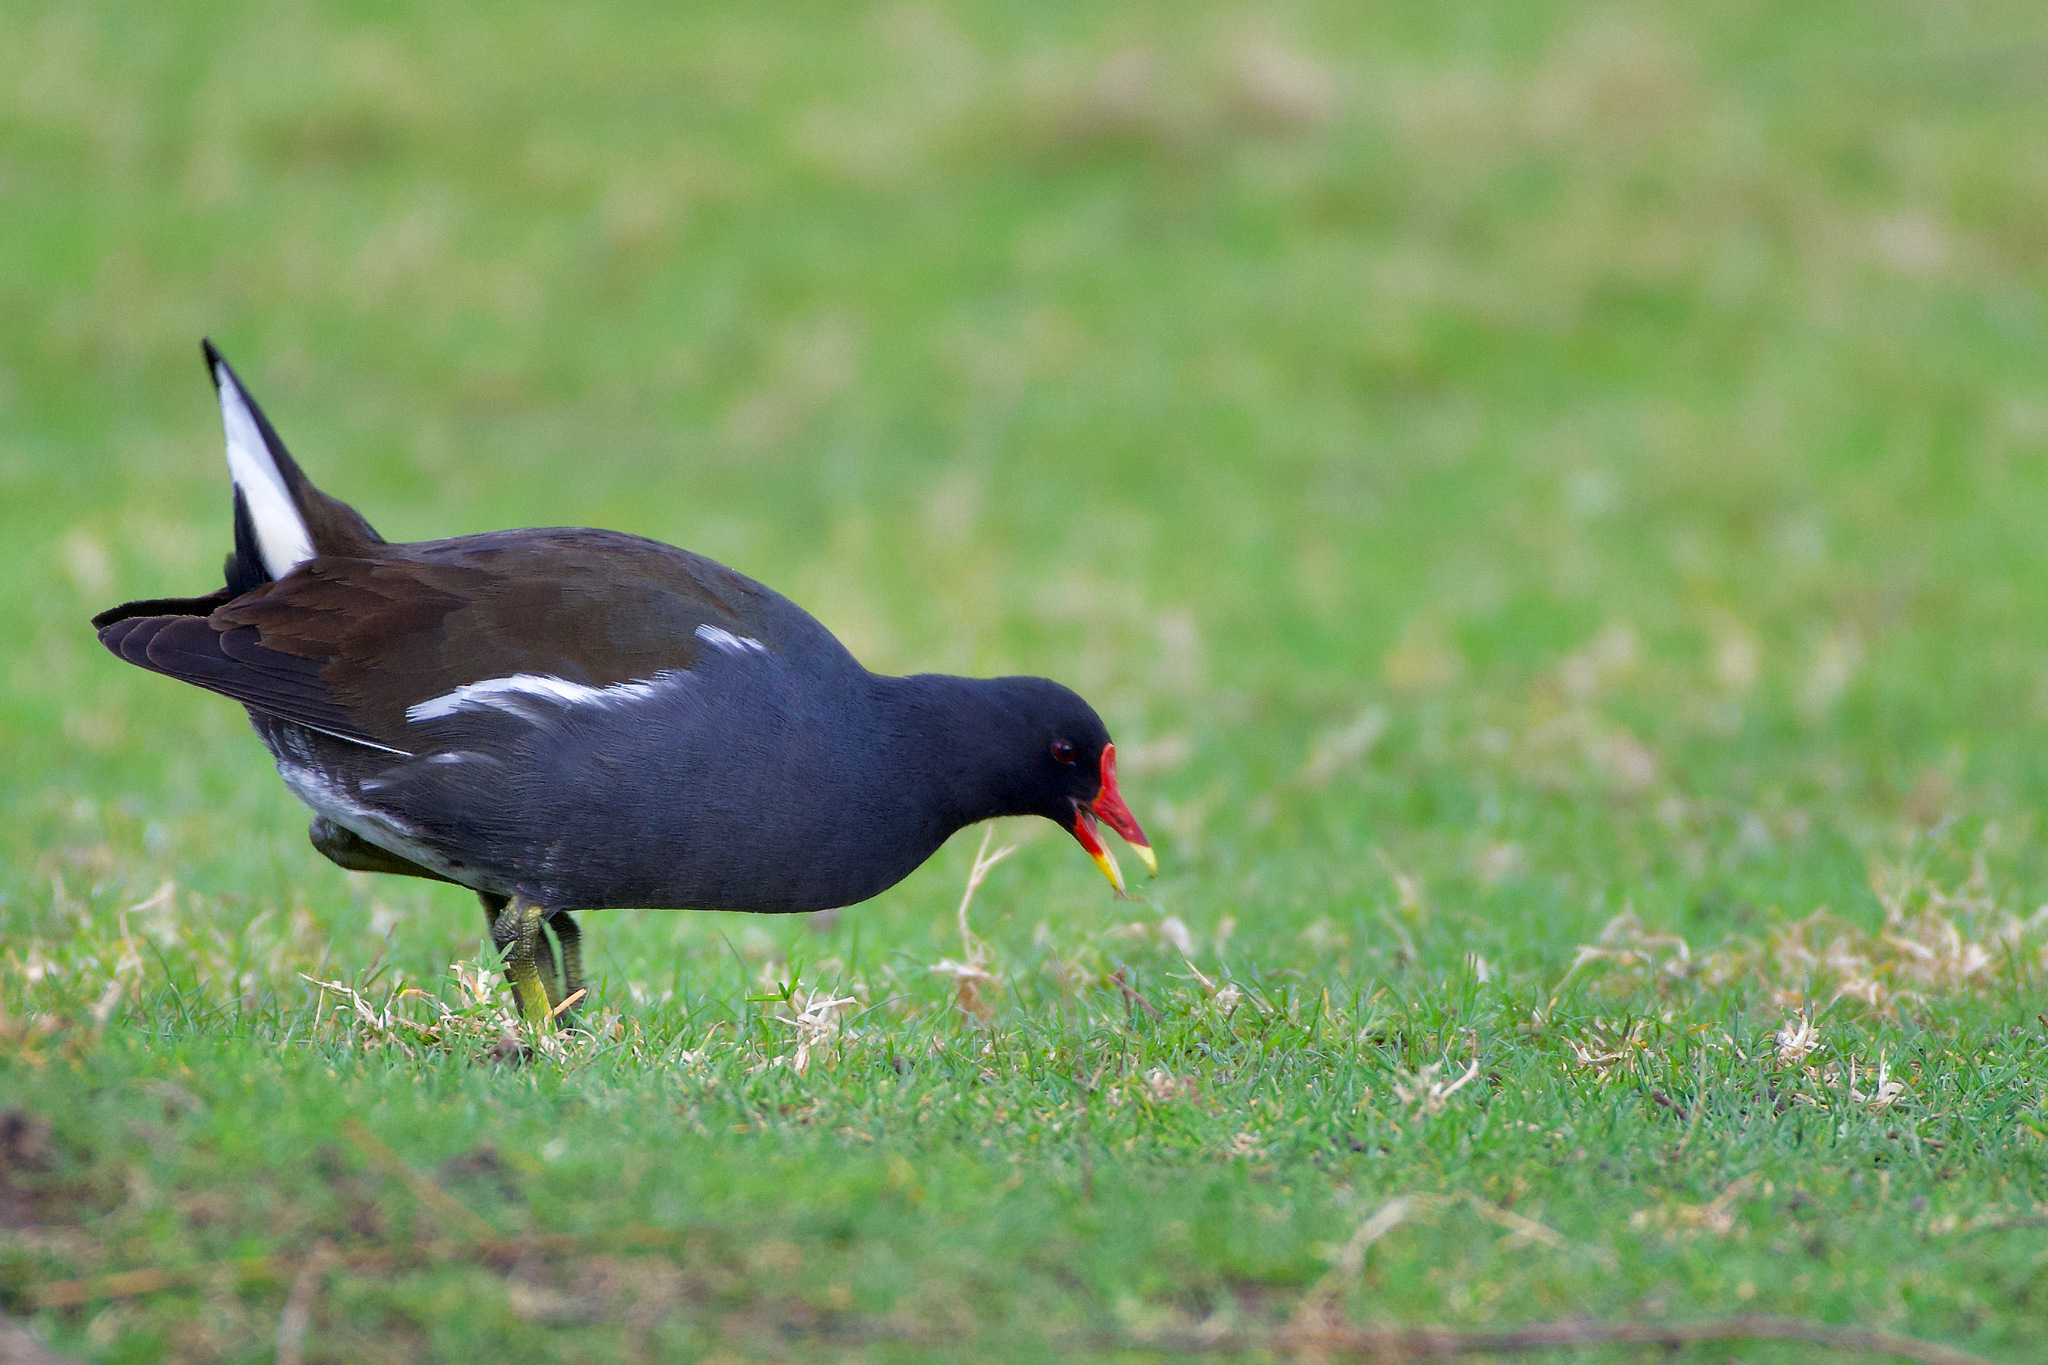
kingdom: Animalia
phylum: Chordata
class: Aves
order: Gruiformes
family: Rallidae
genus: Gallinula
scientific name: Gallinula chloropus
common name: Common moorhen
